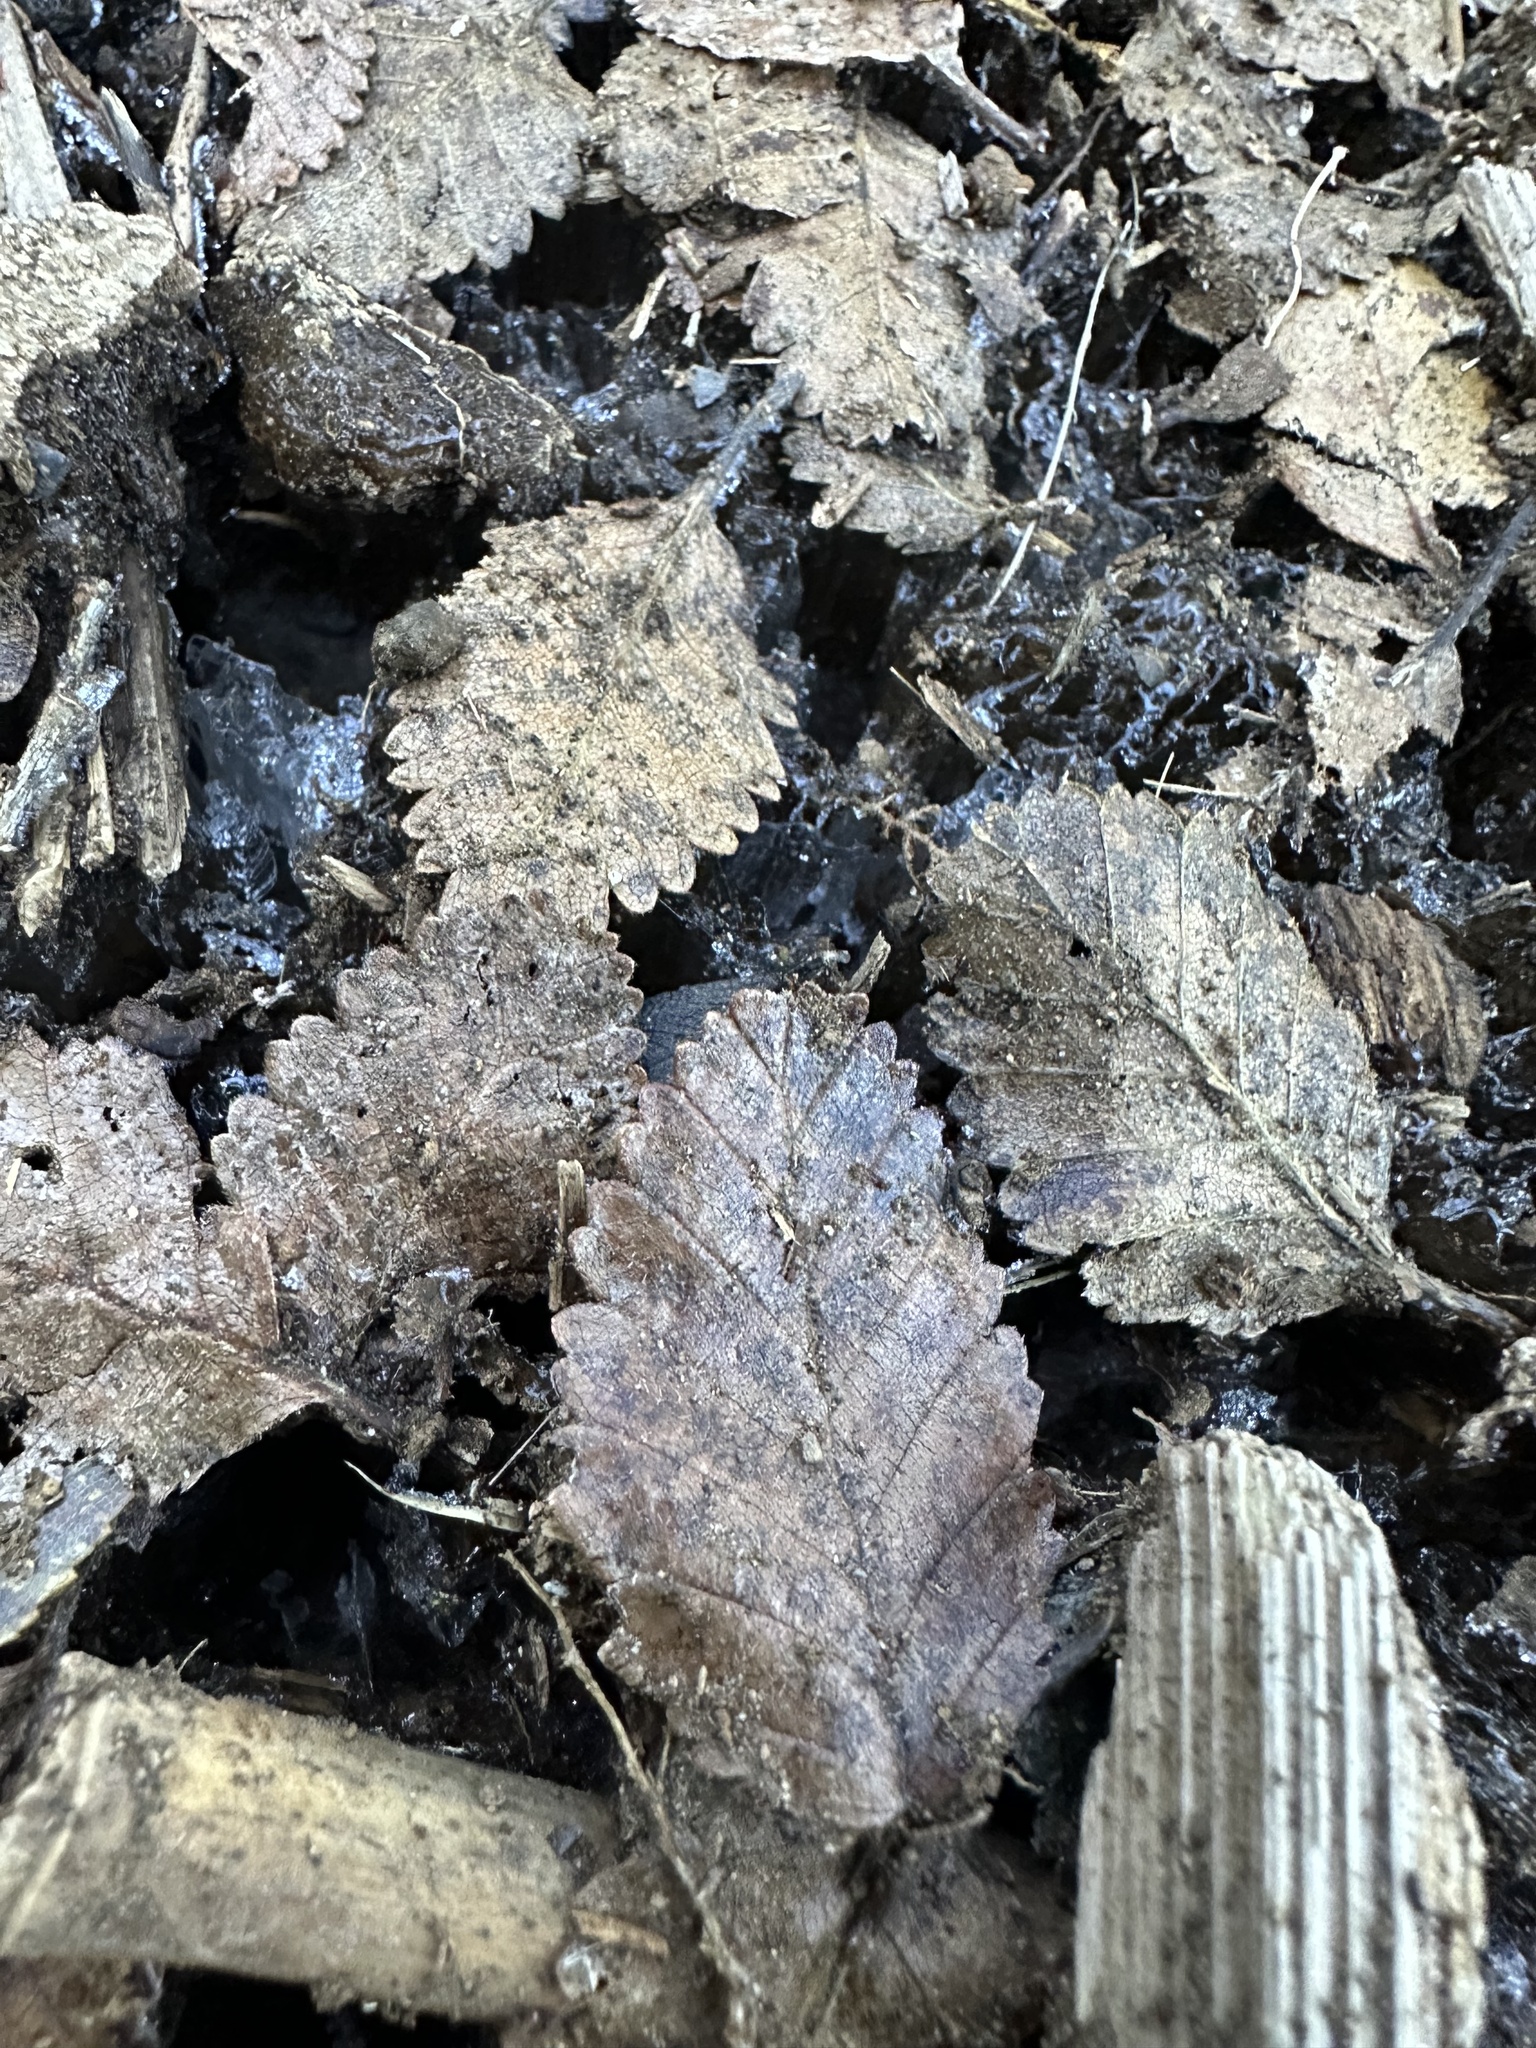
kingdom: Plantae
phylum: Tracheophyta
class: Magnoliopsida
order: Fagales
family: Nothofagaceae
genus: Nothofagus
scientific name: Nothofagus pumilio
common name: Lenga beech
